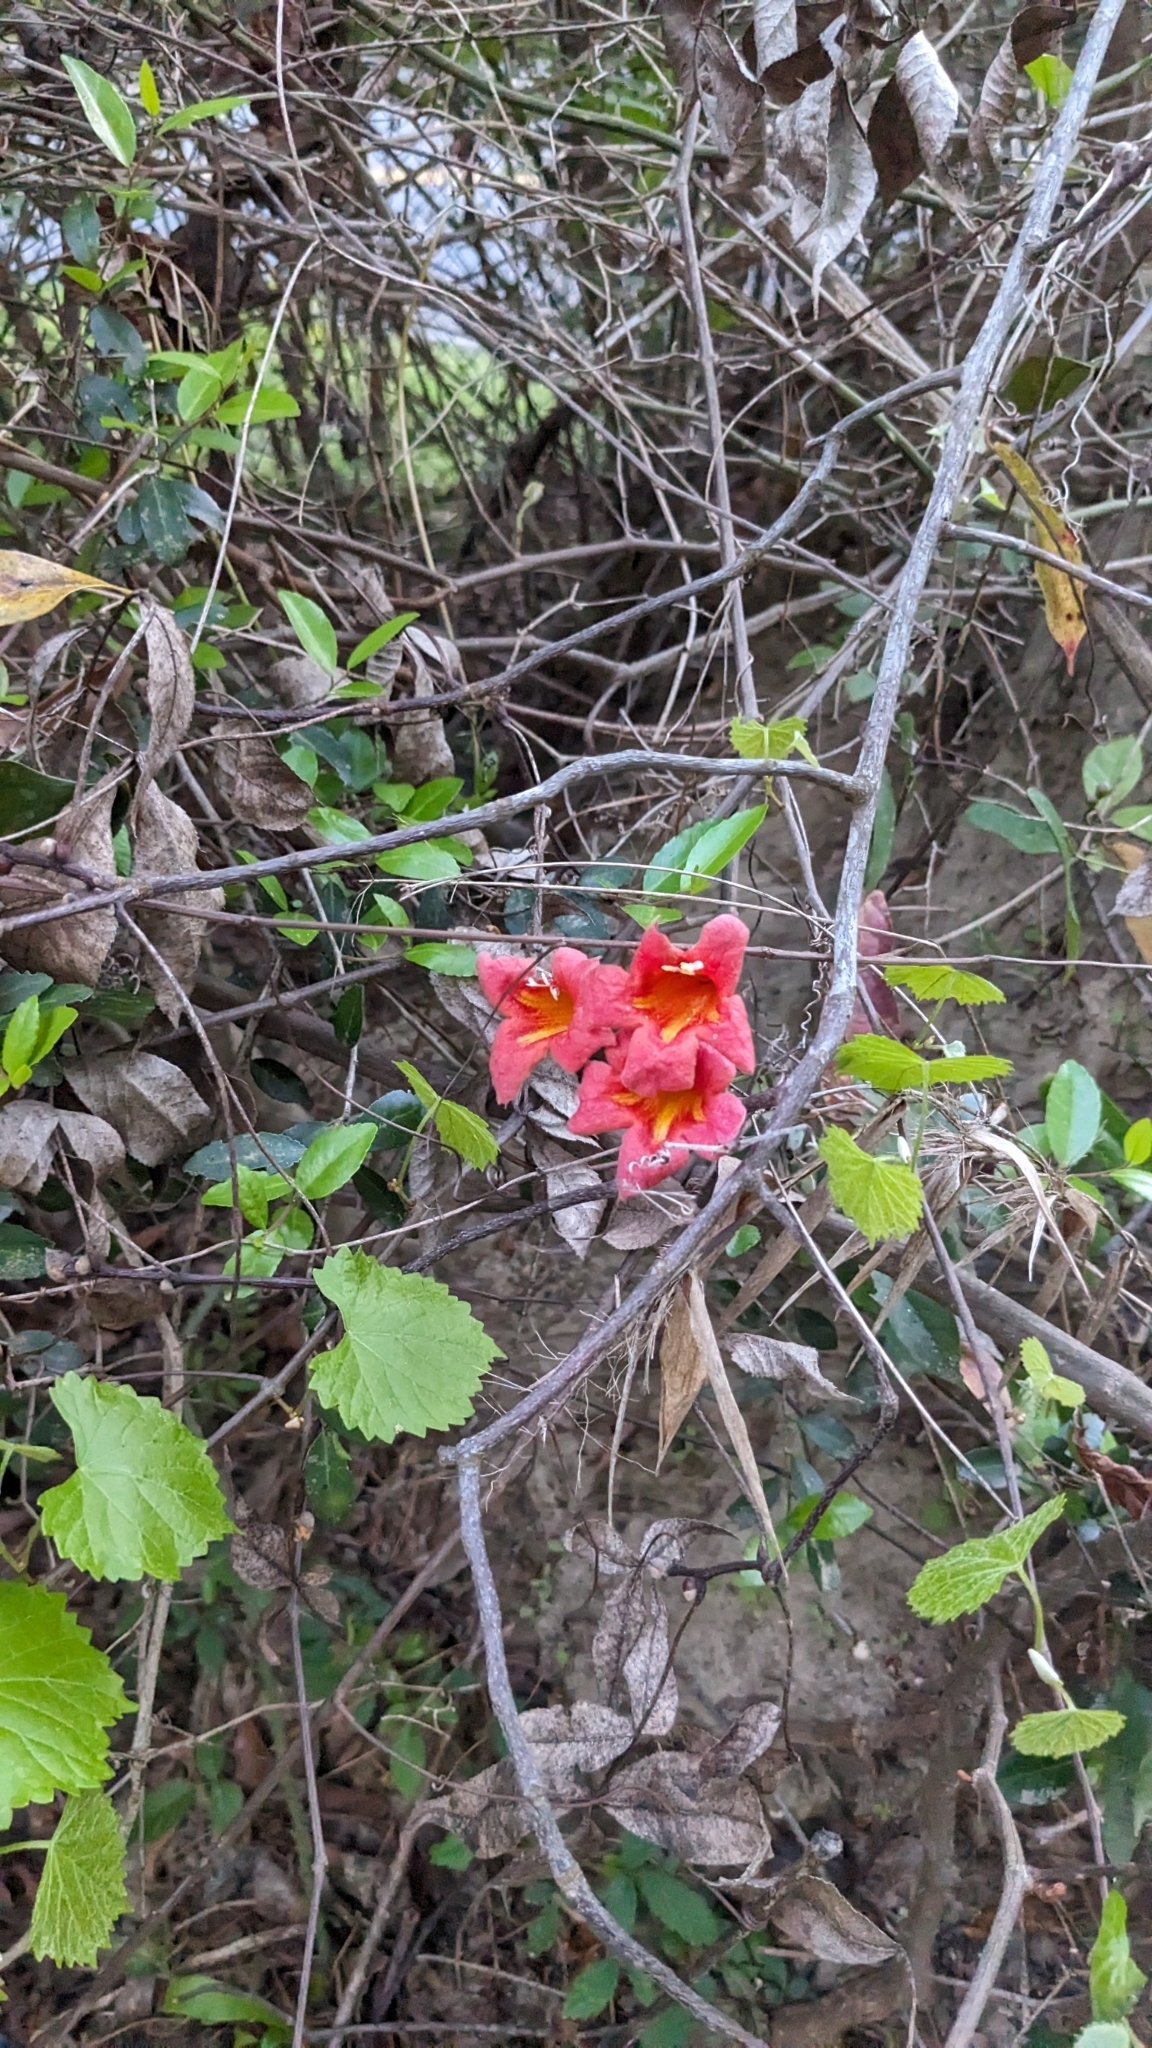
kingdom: Plantae
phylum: Tracheophyta
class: Magnoliopsida
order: Lamiales
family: Bignoniaceae
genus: Bignonia
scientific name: Bignonia capreolata
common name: Crossvine
